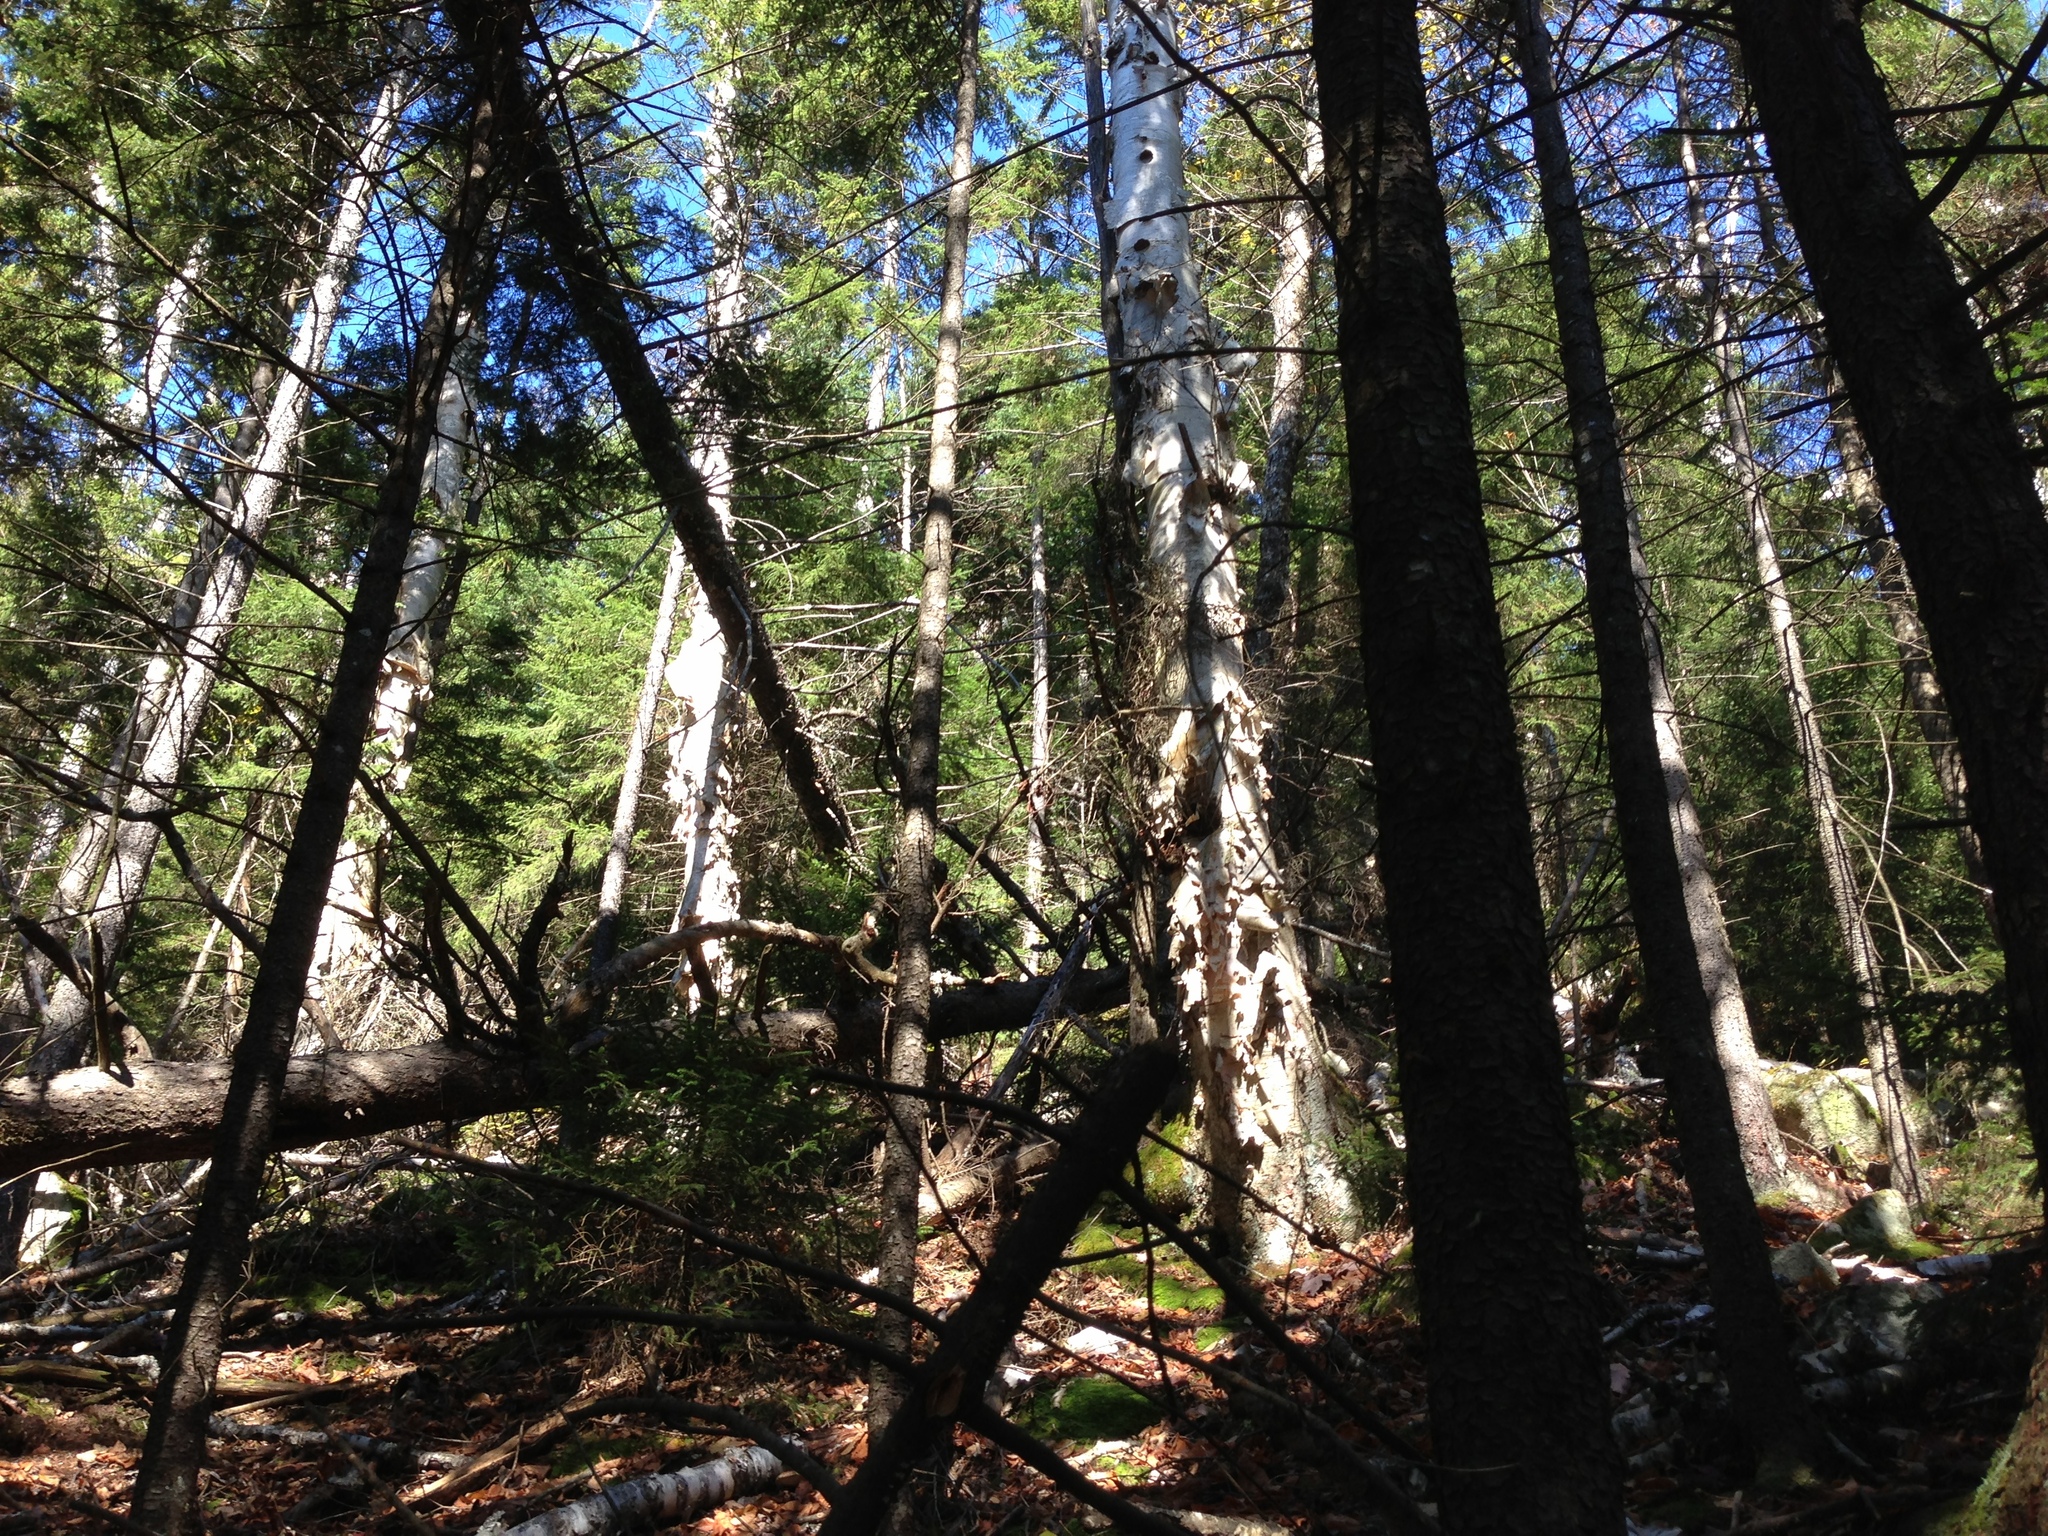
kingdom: Plantae
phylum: Tracheophyta
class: Magnoliopsida
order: Fagales
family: Betulaceae
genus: Betula
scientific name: Betula papyrifera
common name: Paper birch
